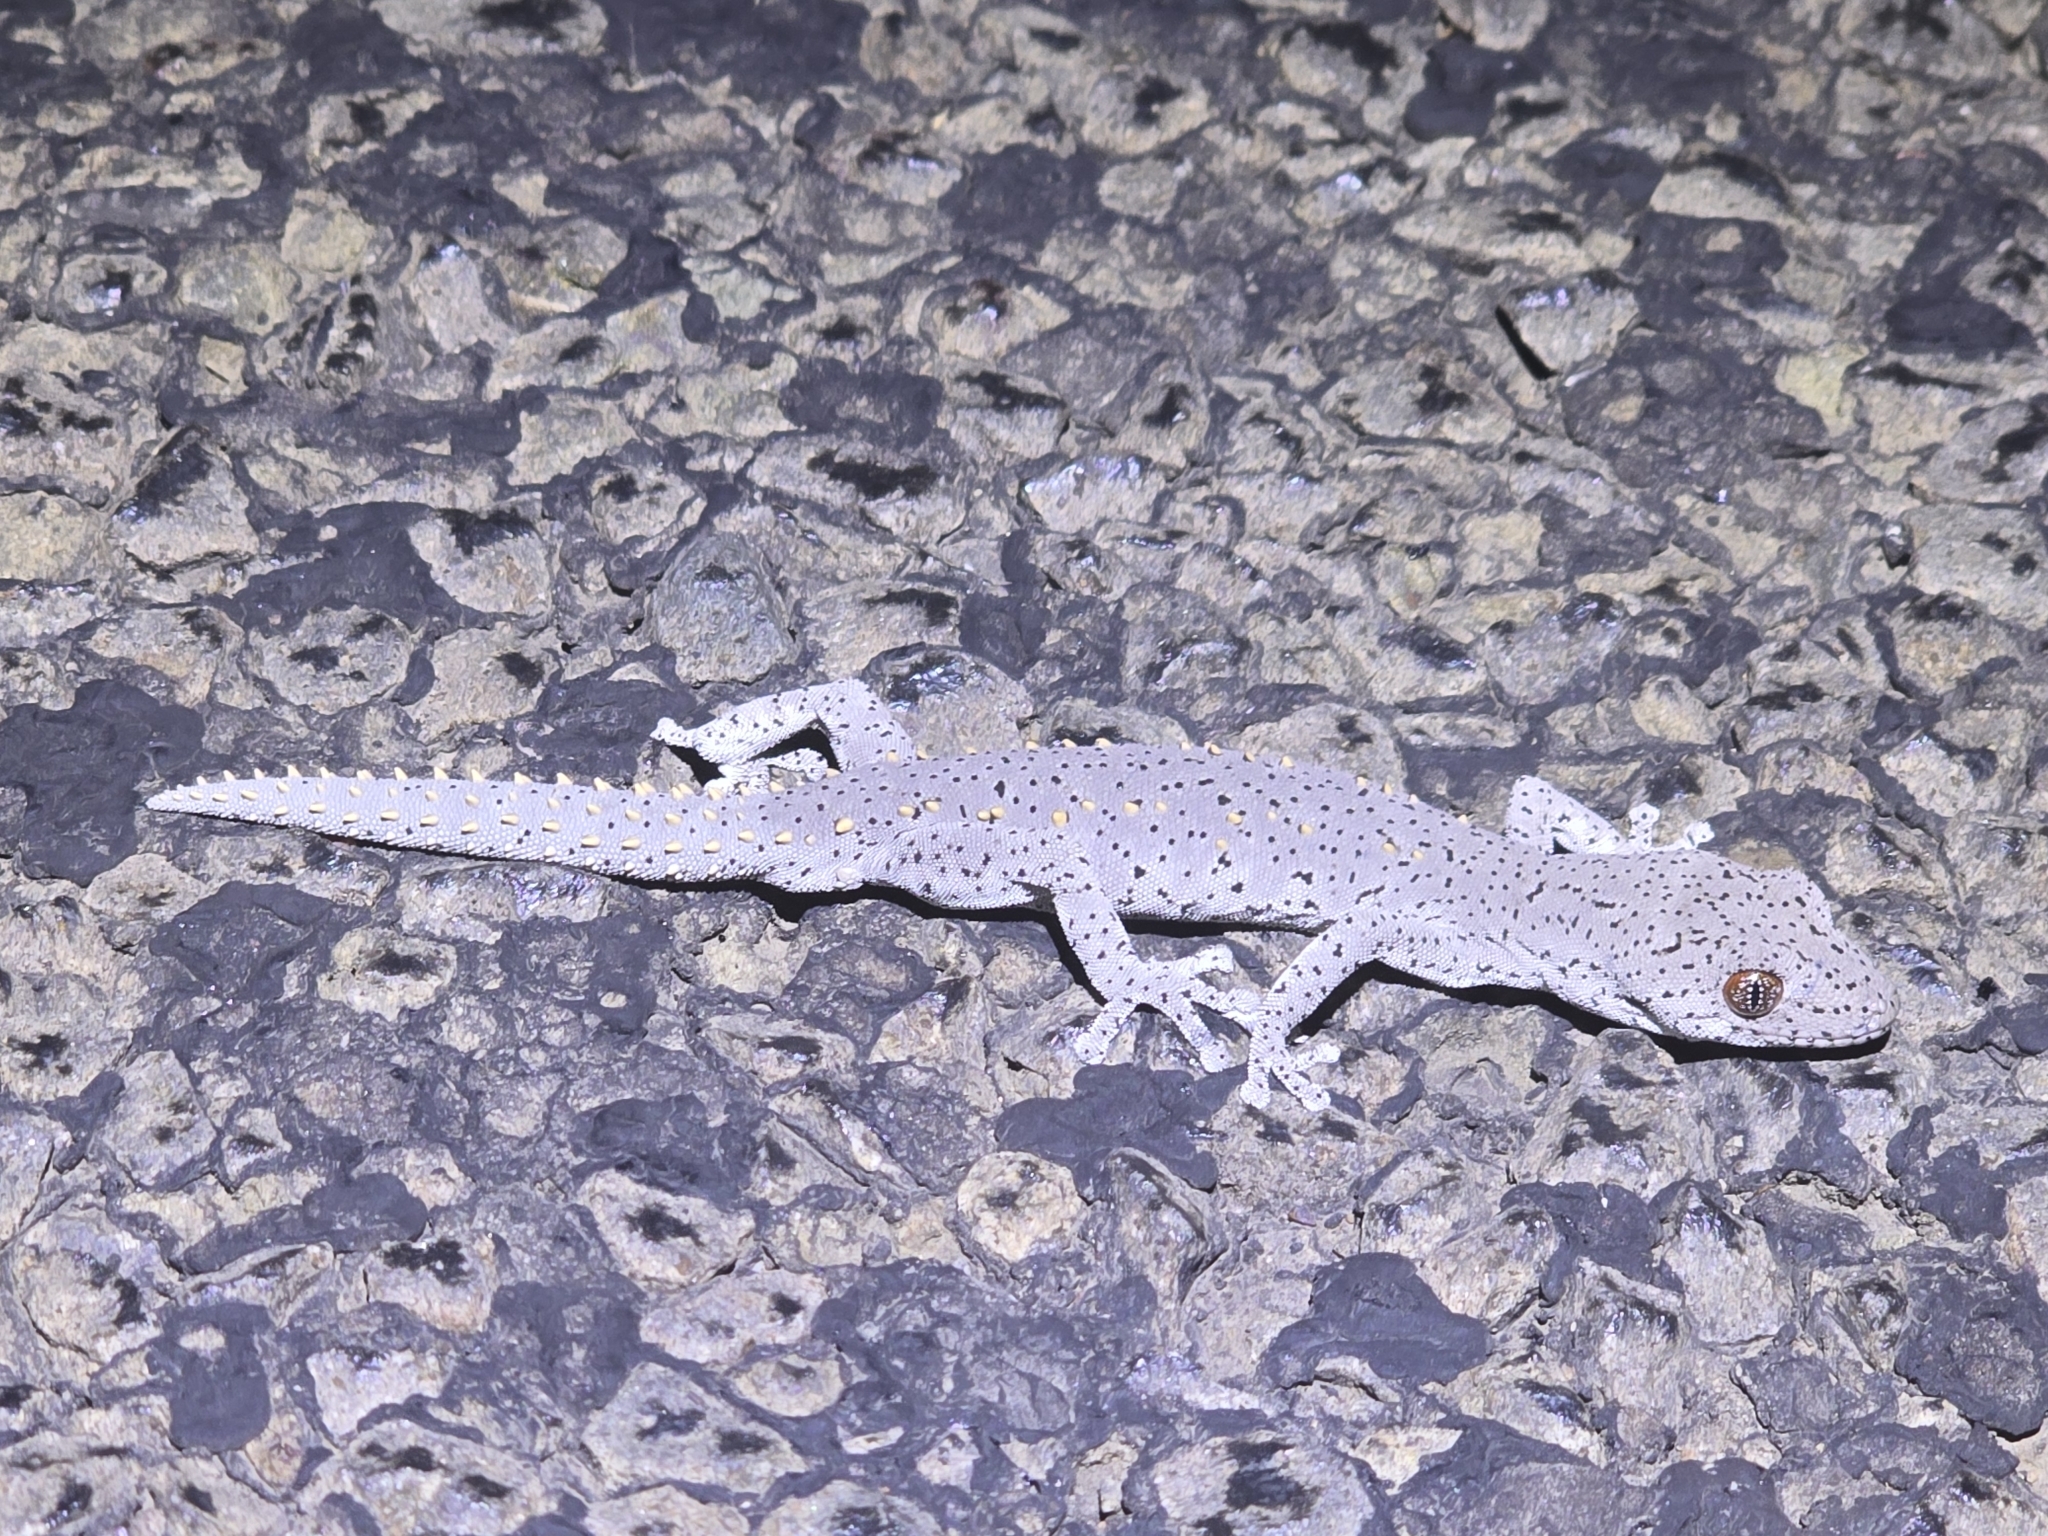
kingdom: Animalia
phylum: Chordata
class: Squamata
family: Diplodactylidae
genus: Strophurus
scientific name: Strophurus williamsi
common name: Eastern spiny-tailed gecko
